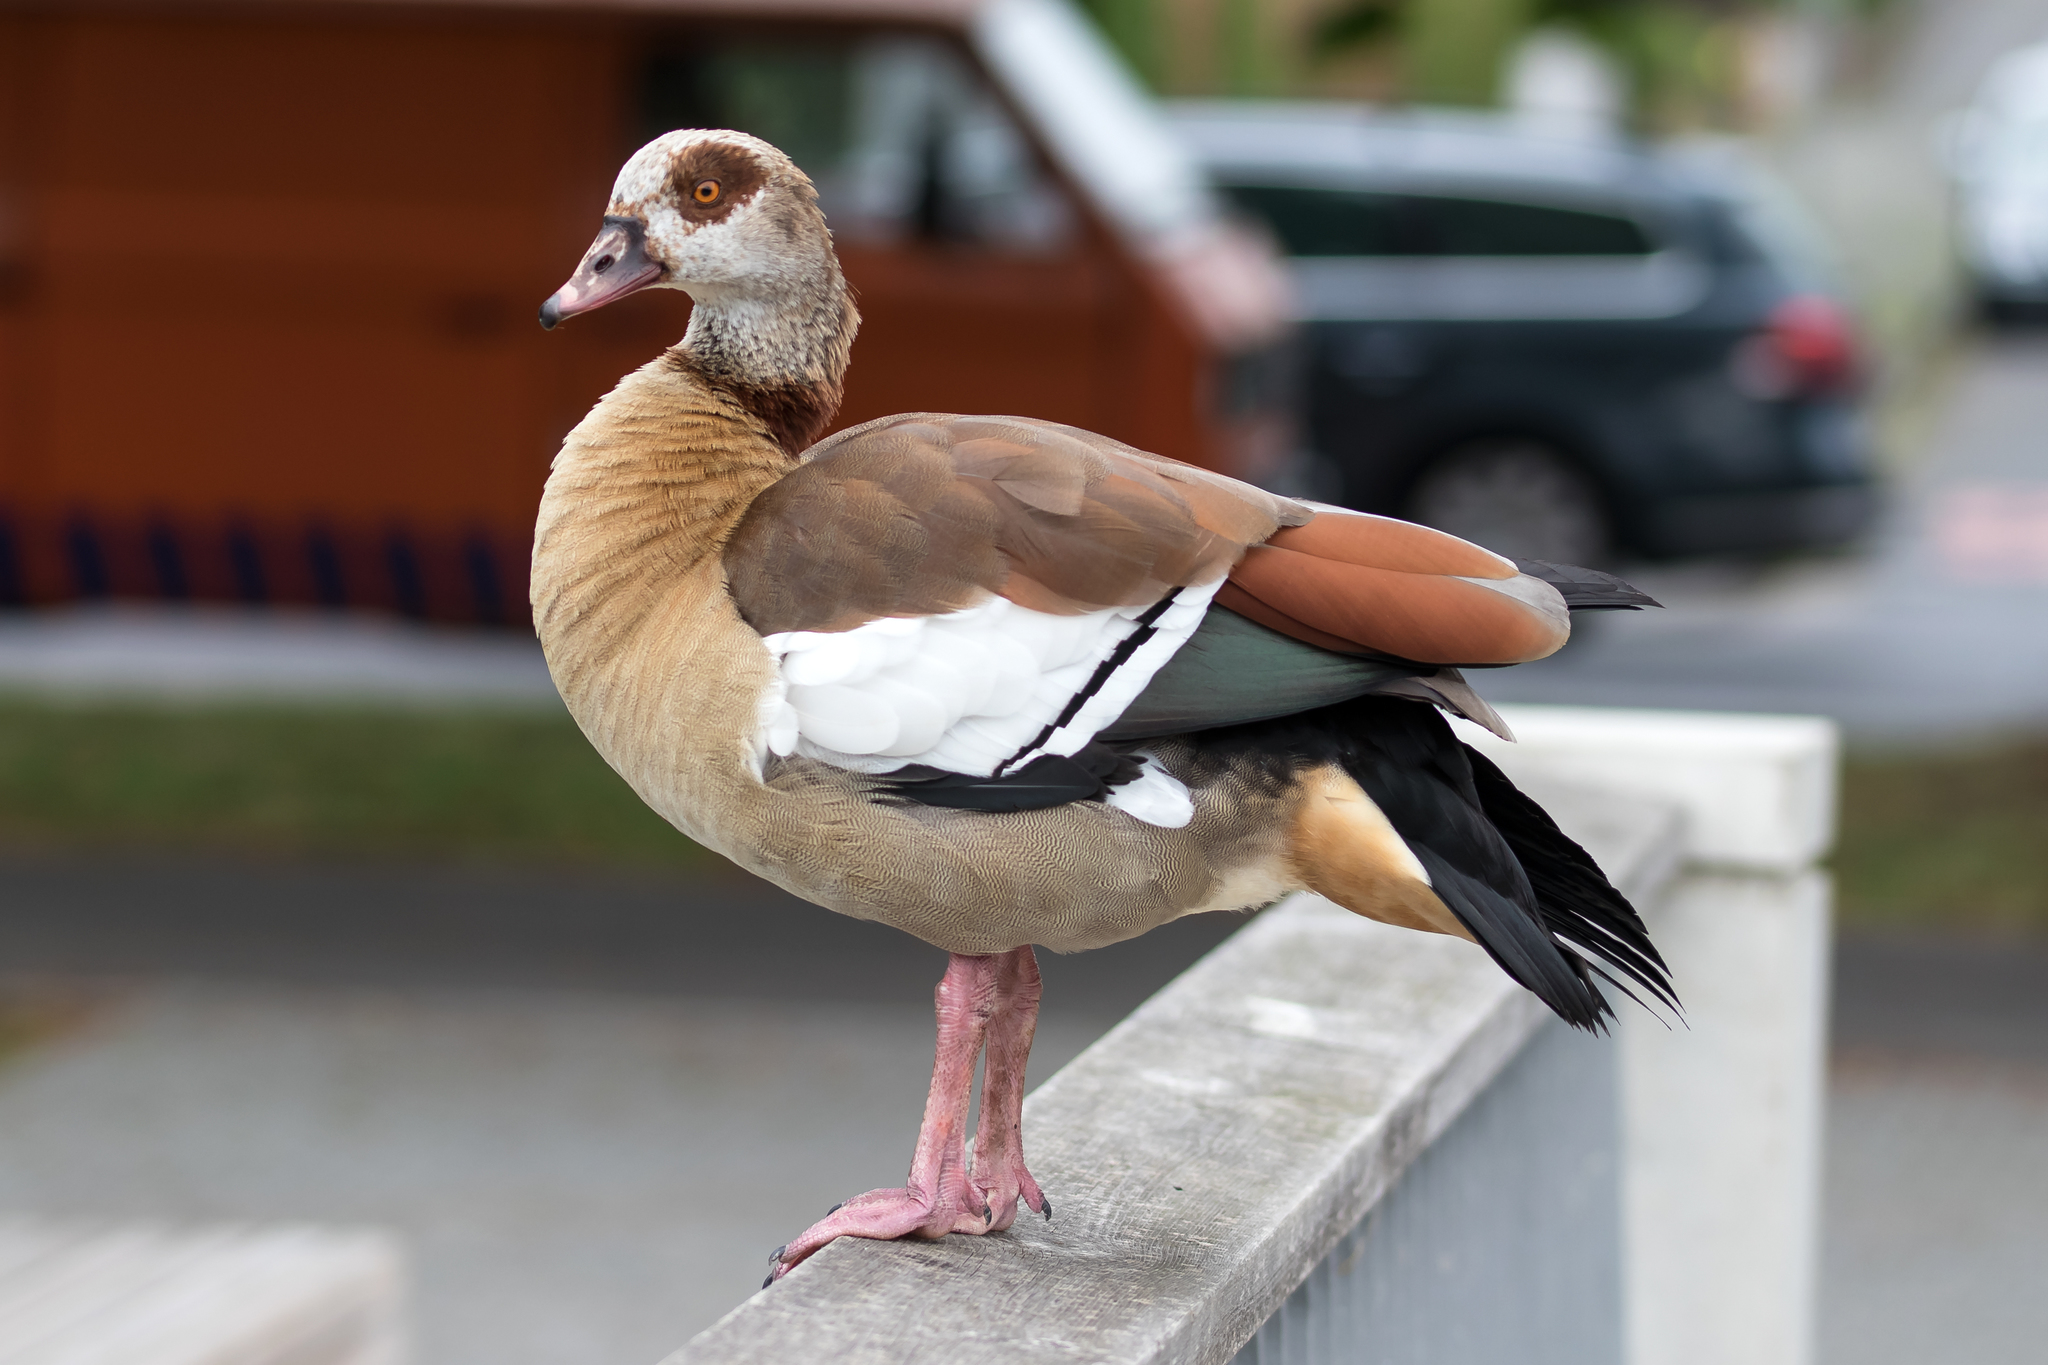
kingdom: Animalia
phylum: Chordata
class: Aves
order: Anseriformes
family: Anatidae
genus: Alopochen
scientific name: Alopochen aegyptiaca
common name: Egyptian goose
